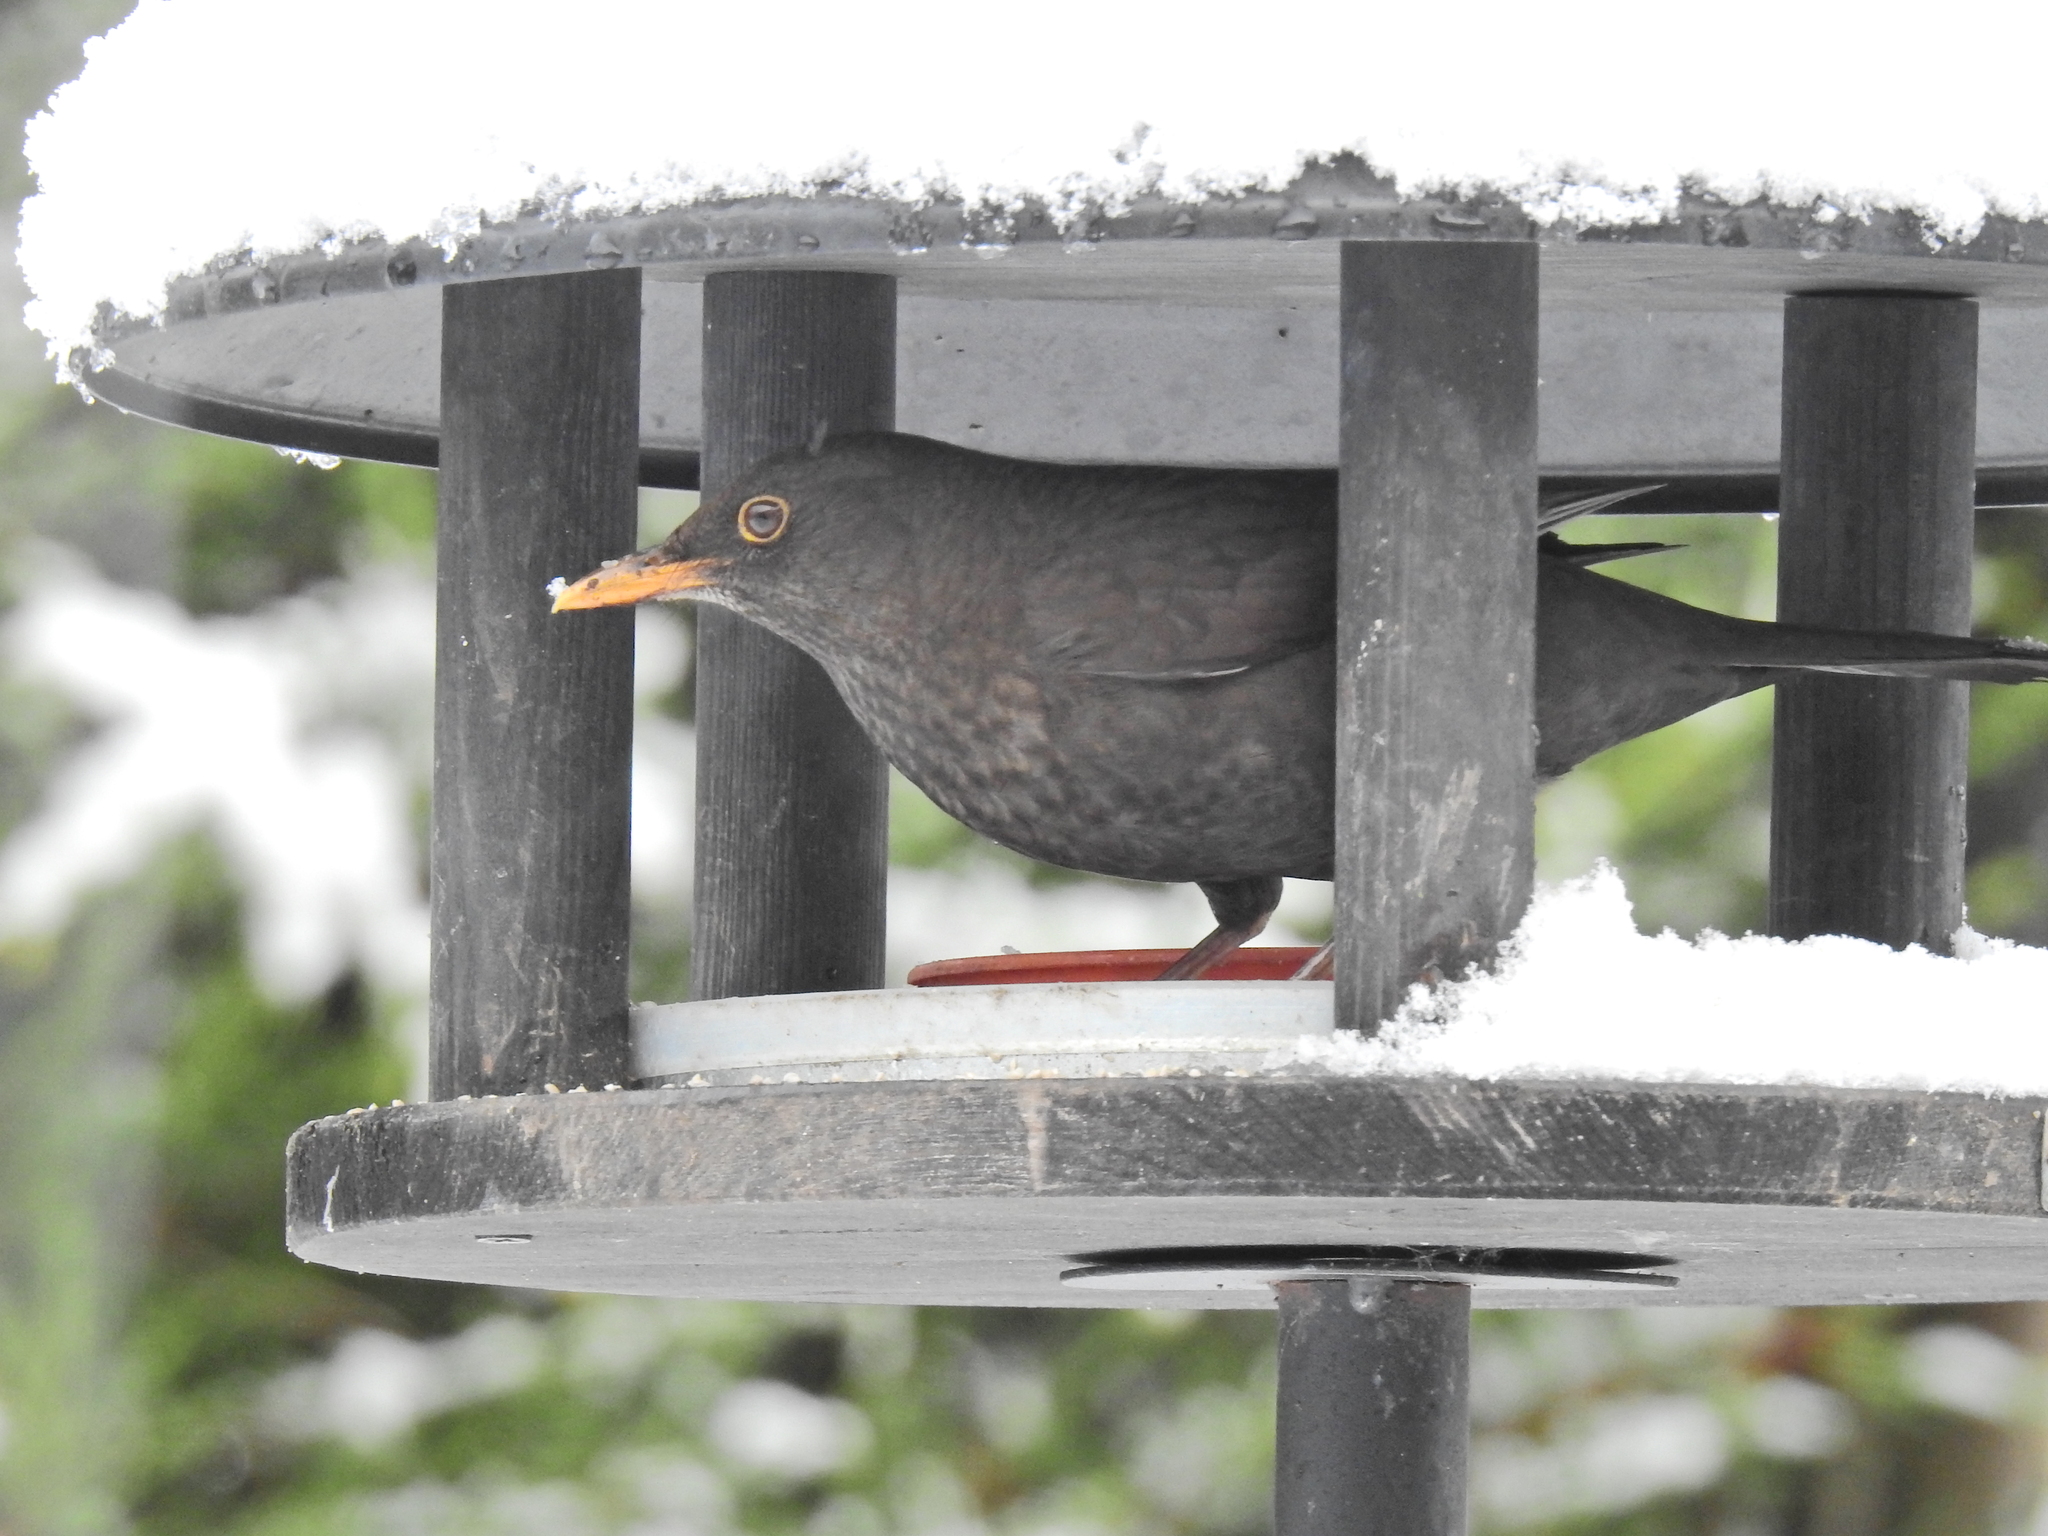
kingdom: Animalia
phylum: Chordata
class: Aves
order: Passeriformes
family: Turdidae
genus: Turdus
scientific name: Turdus merula
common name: Common blackbird
